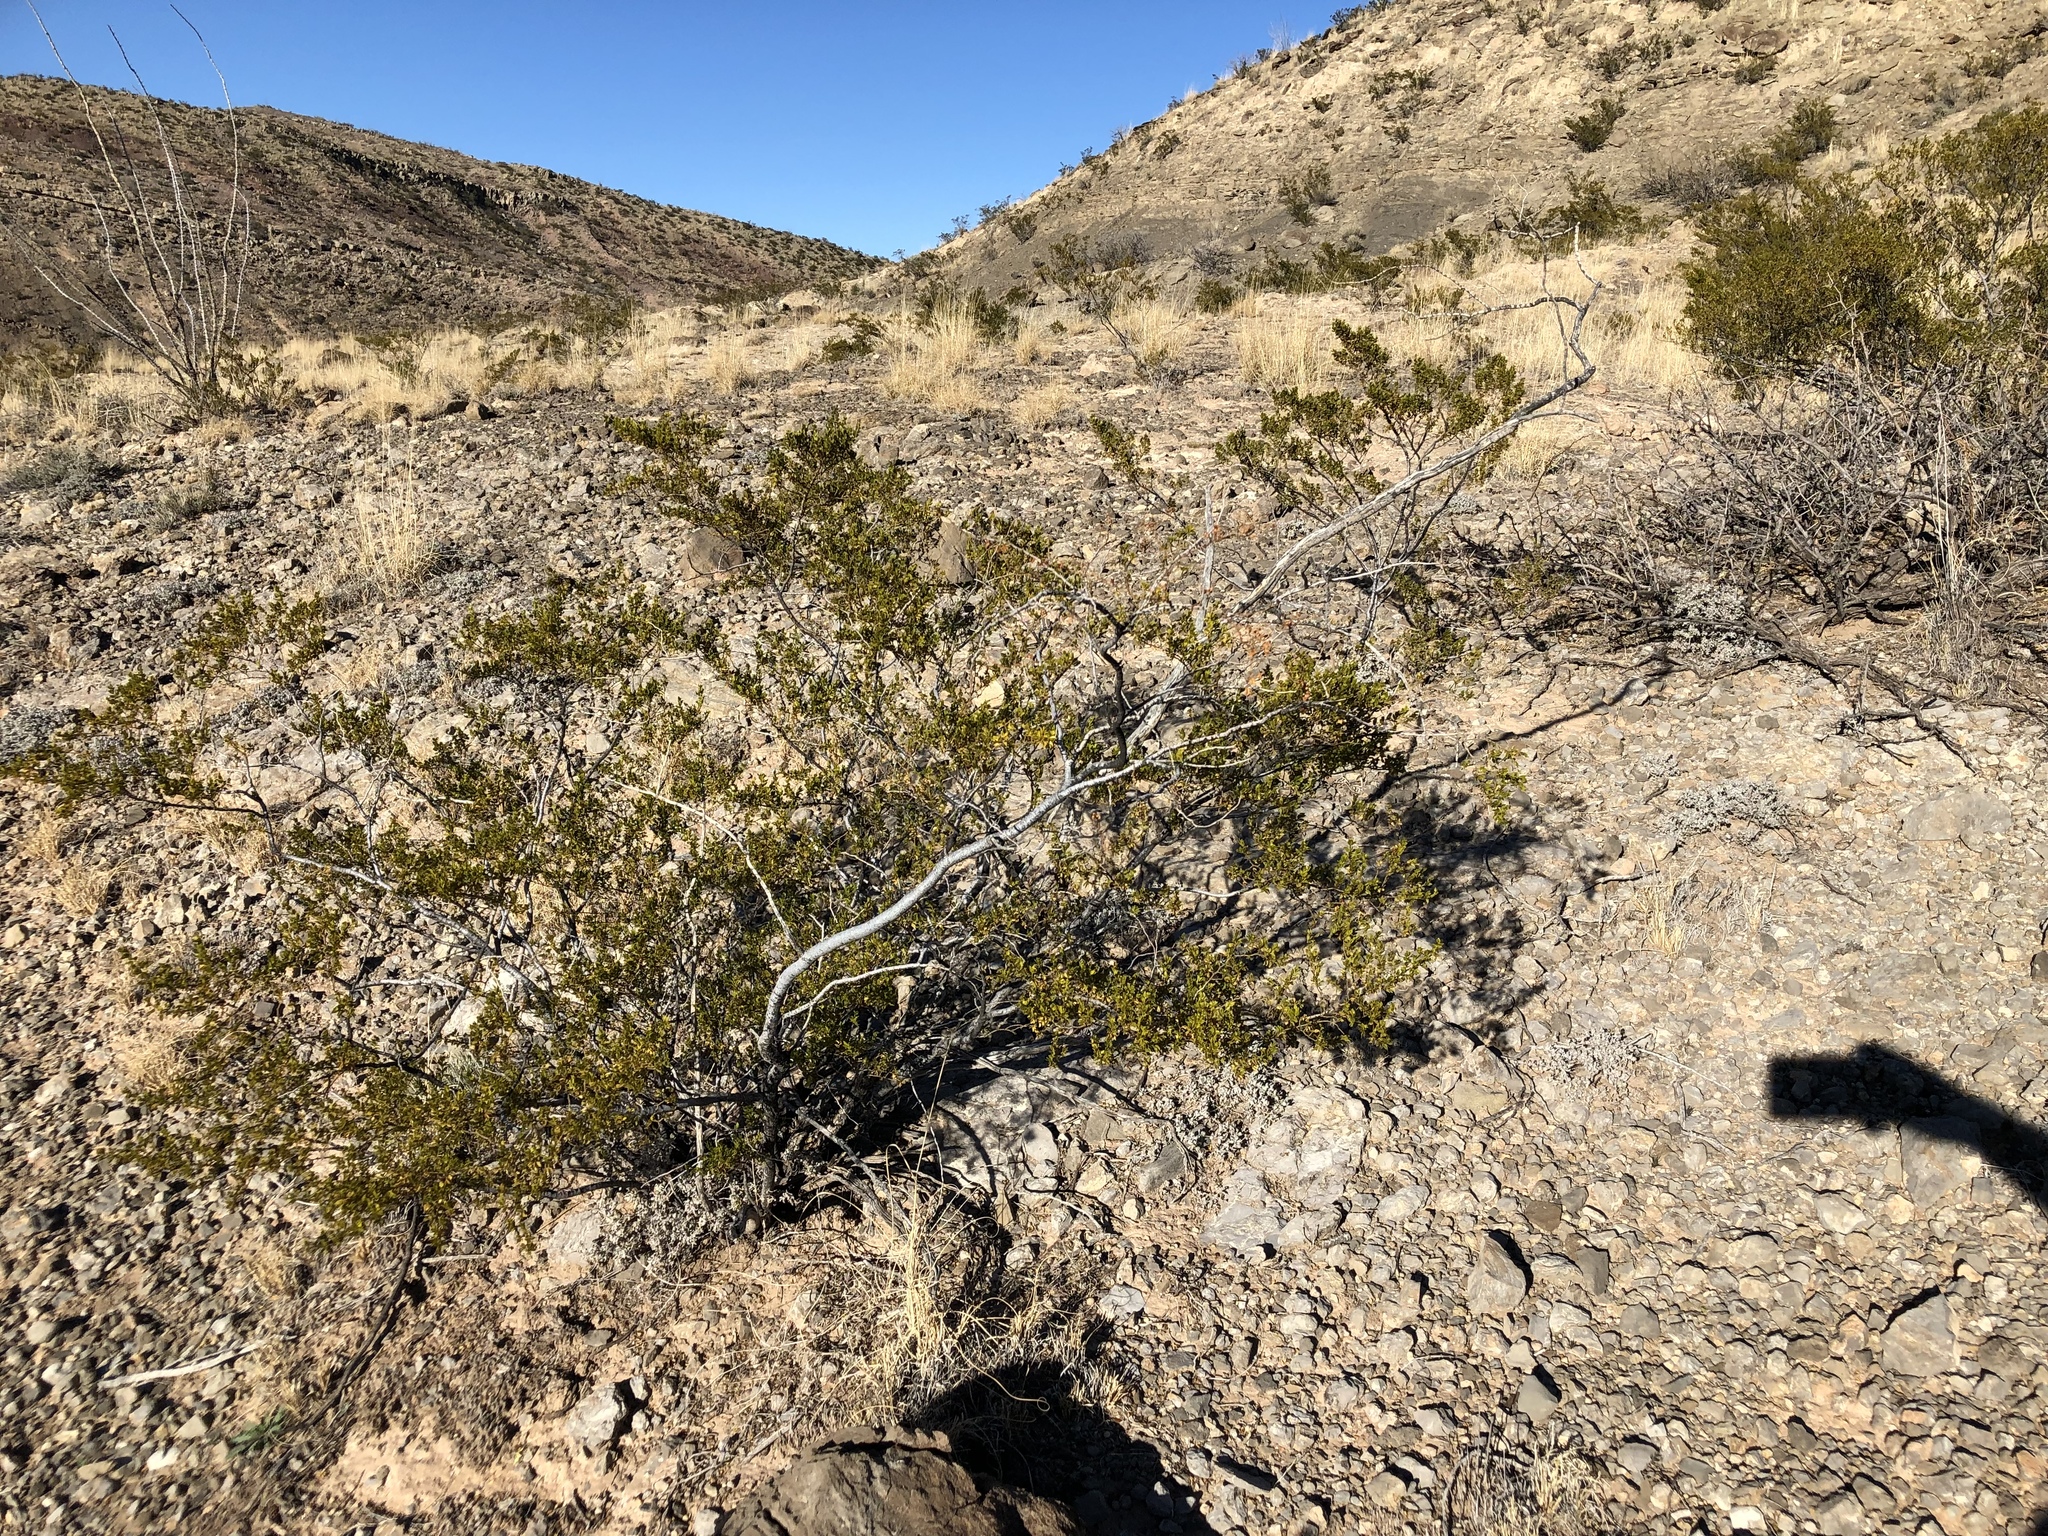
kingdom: Plantae
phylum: Tracheophyta
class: Magnoliopsida
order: Zygophyllales
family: Zygophyllaceae
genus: Larrea
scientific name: Larrea tridentata
